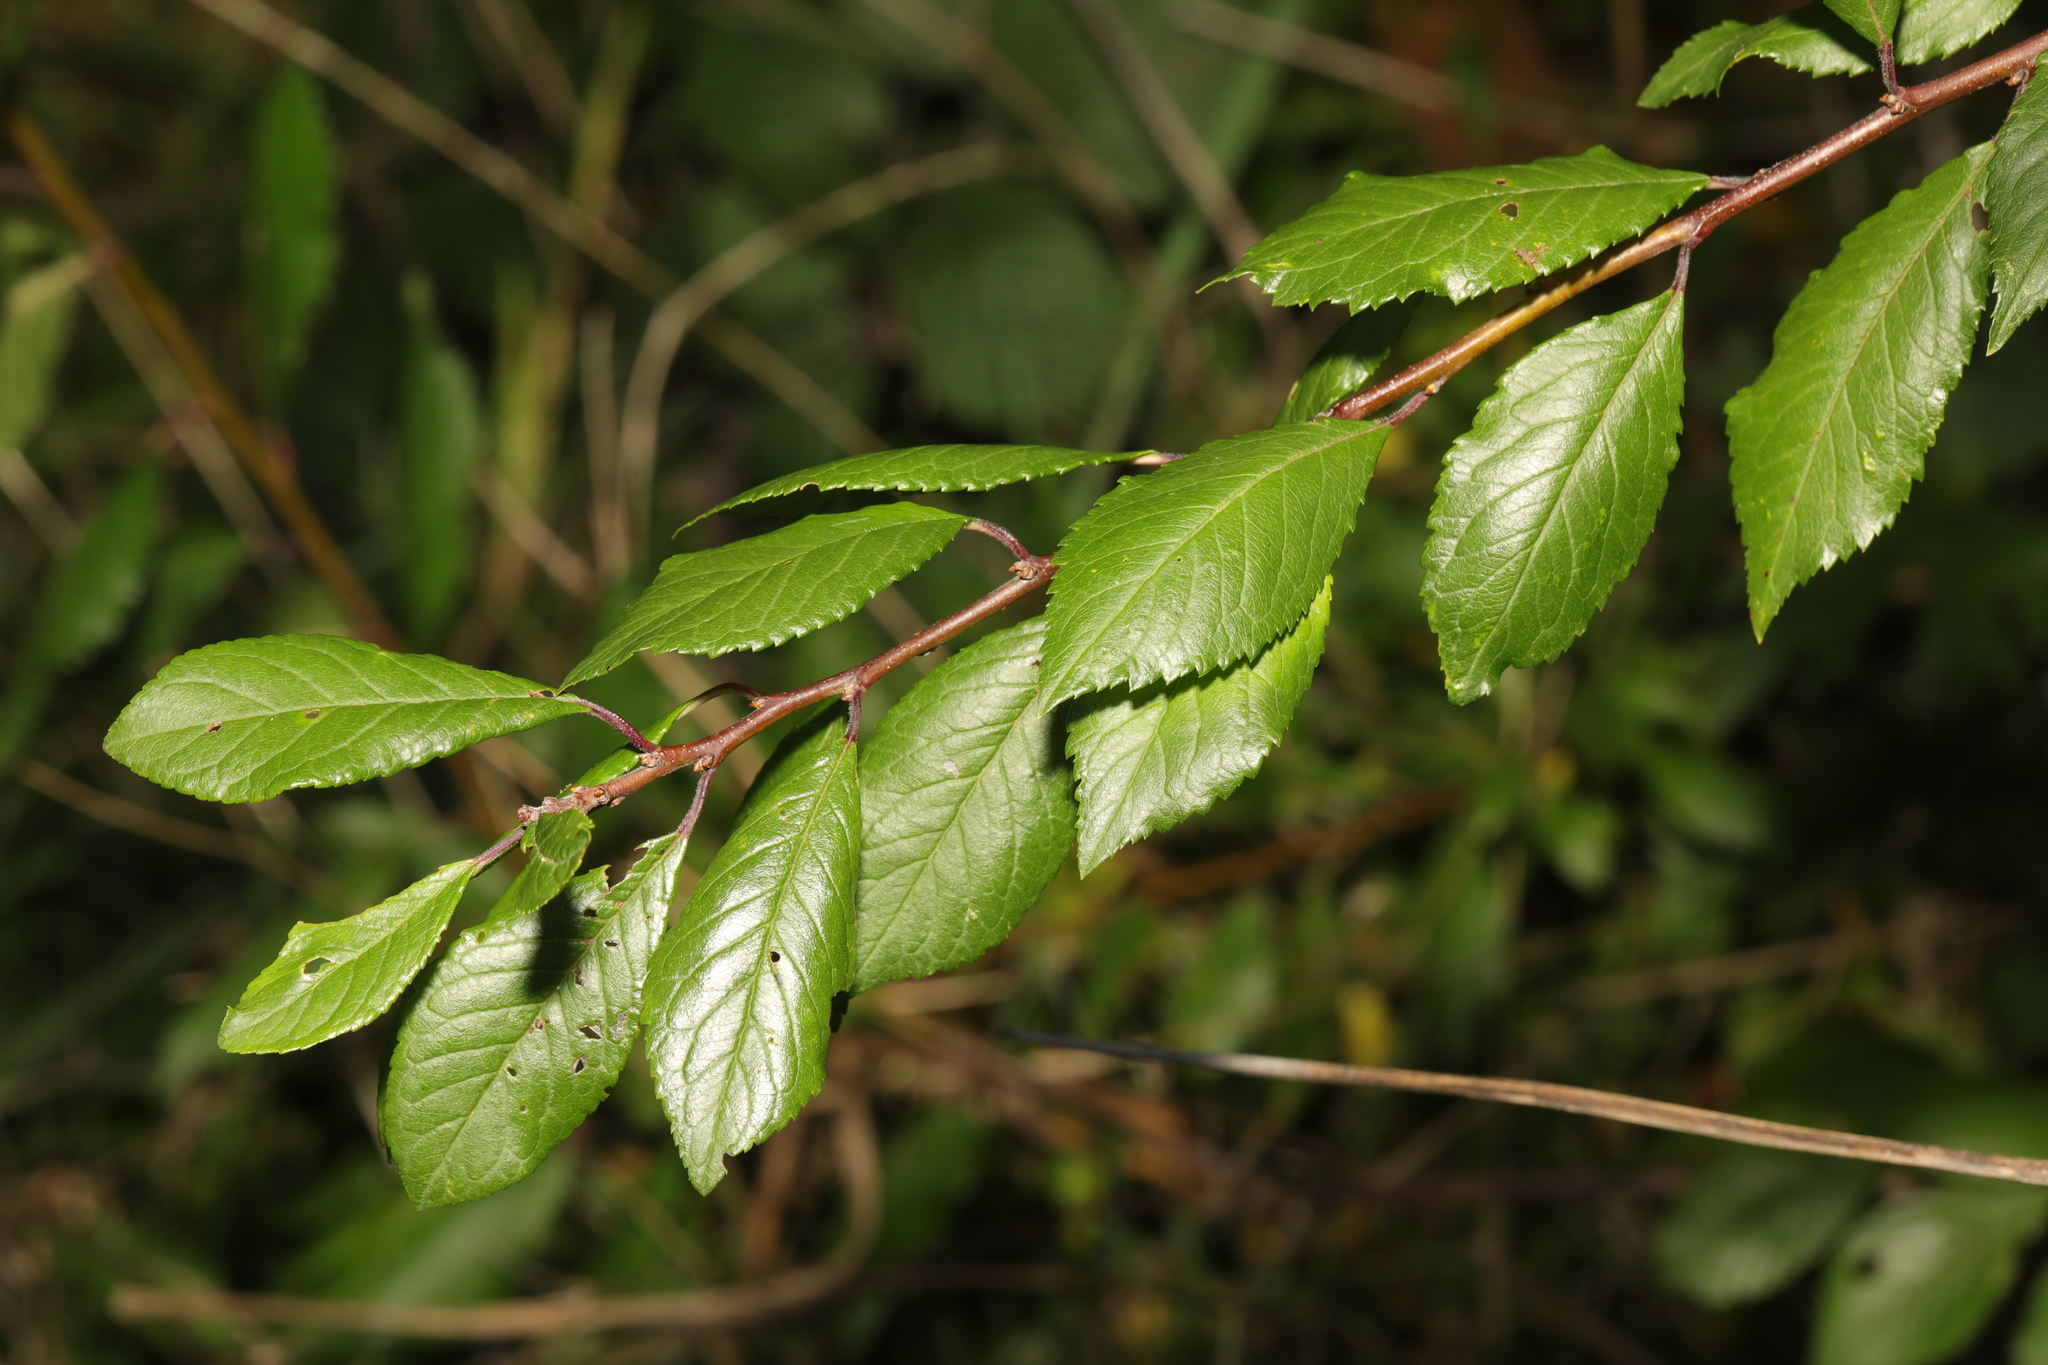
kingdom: Plantae
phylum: Tracheophyta
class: Magnoliopsida
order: Rosales
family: Rosaceae
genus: Prunus
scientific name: Prunus spinosa
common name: Blackthorn
